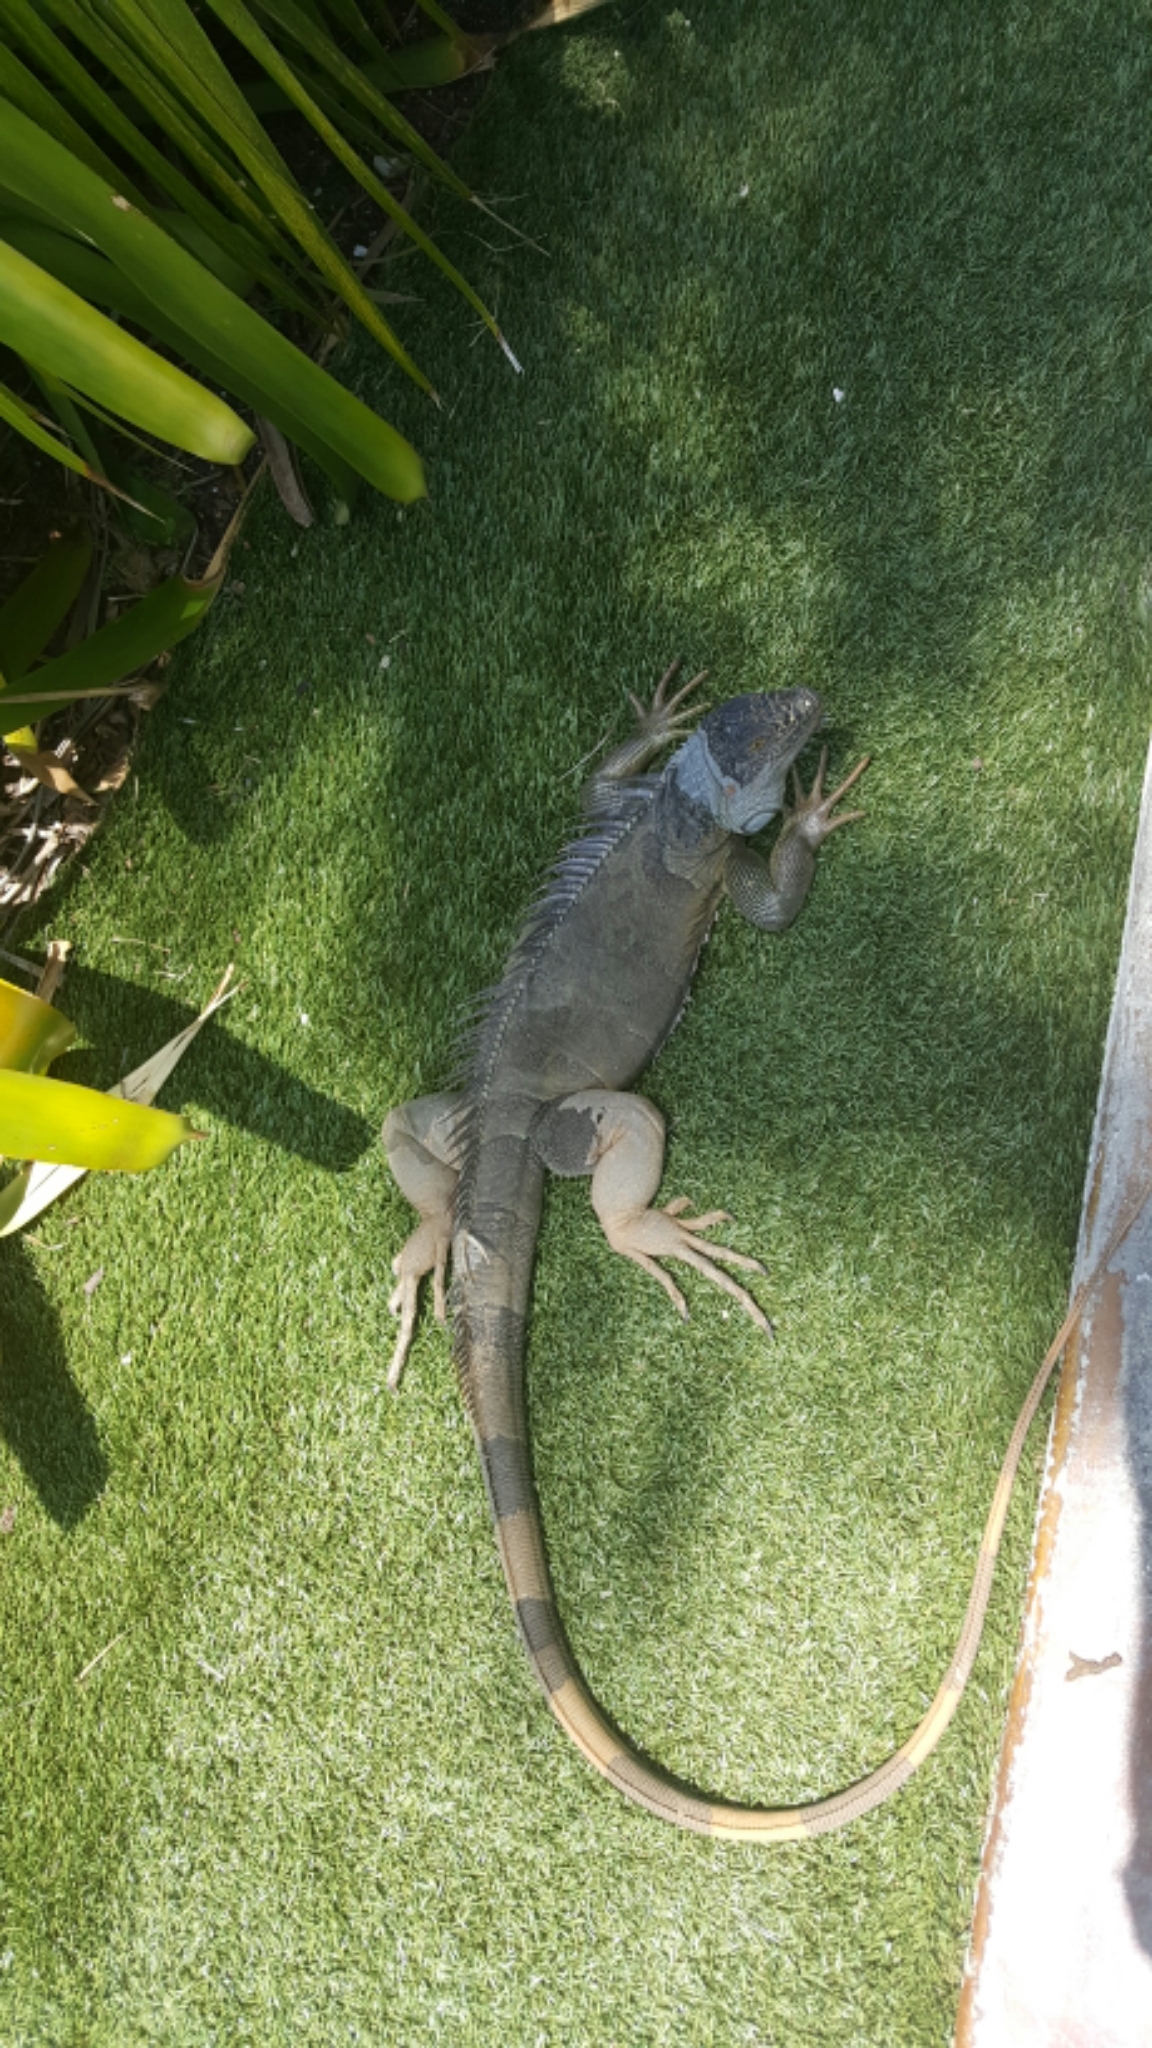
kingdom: Animalia
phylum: Chordata
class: Squamata
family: Iguanidae
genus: Iguana
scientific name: Iguana iguana
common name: Green iguana
